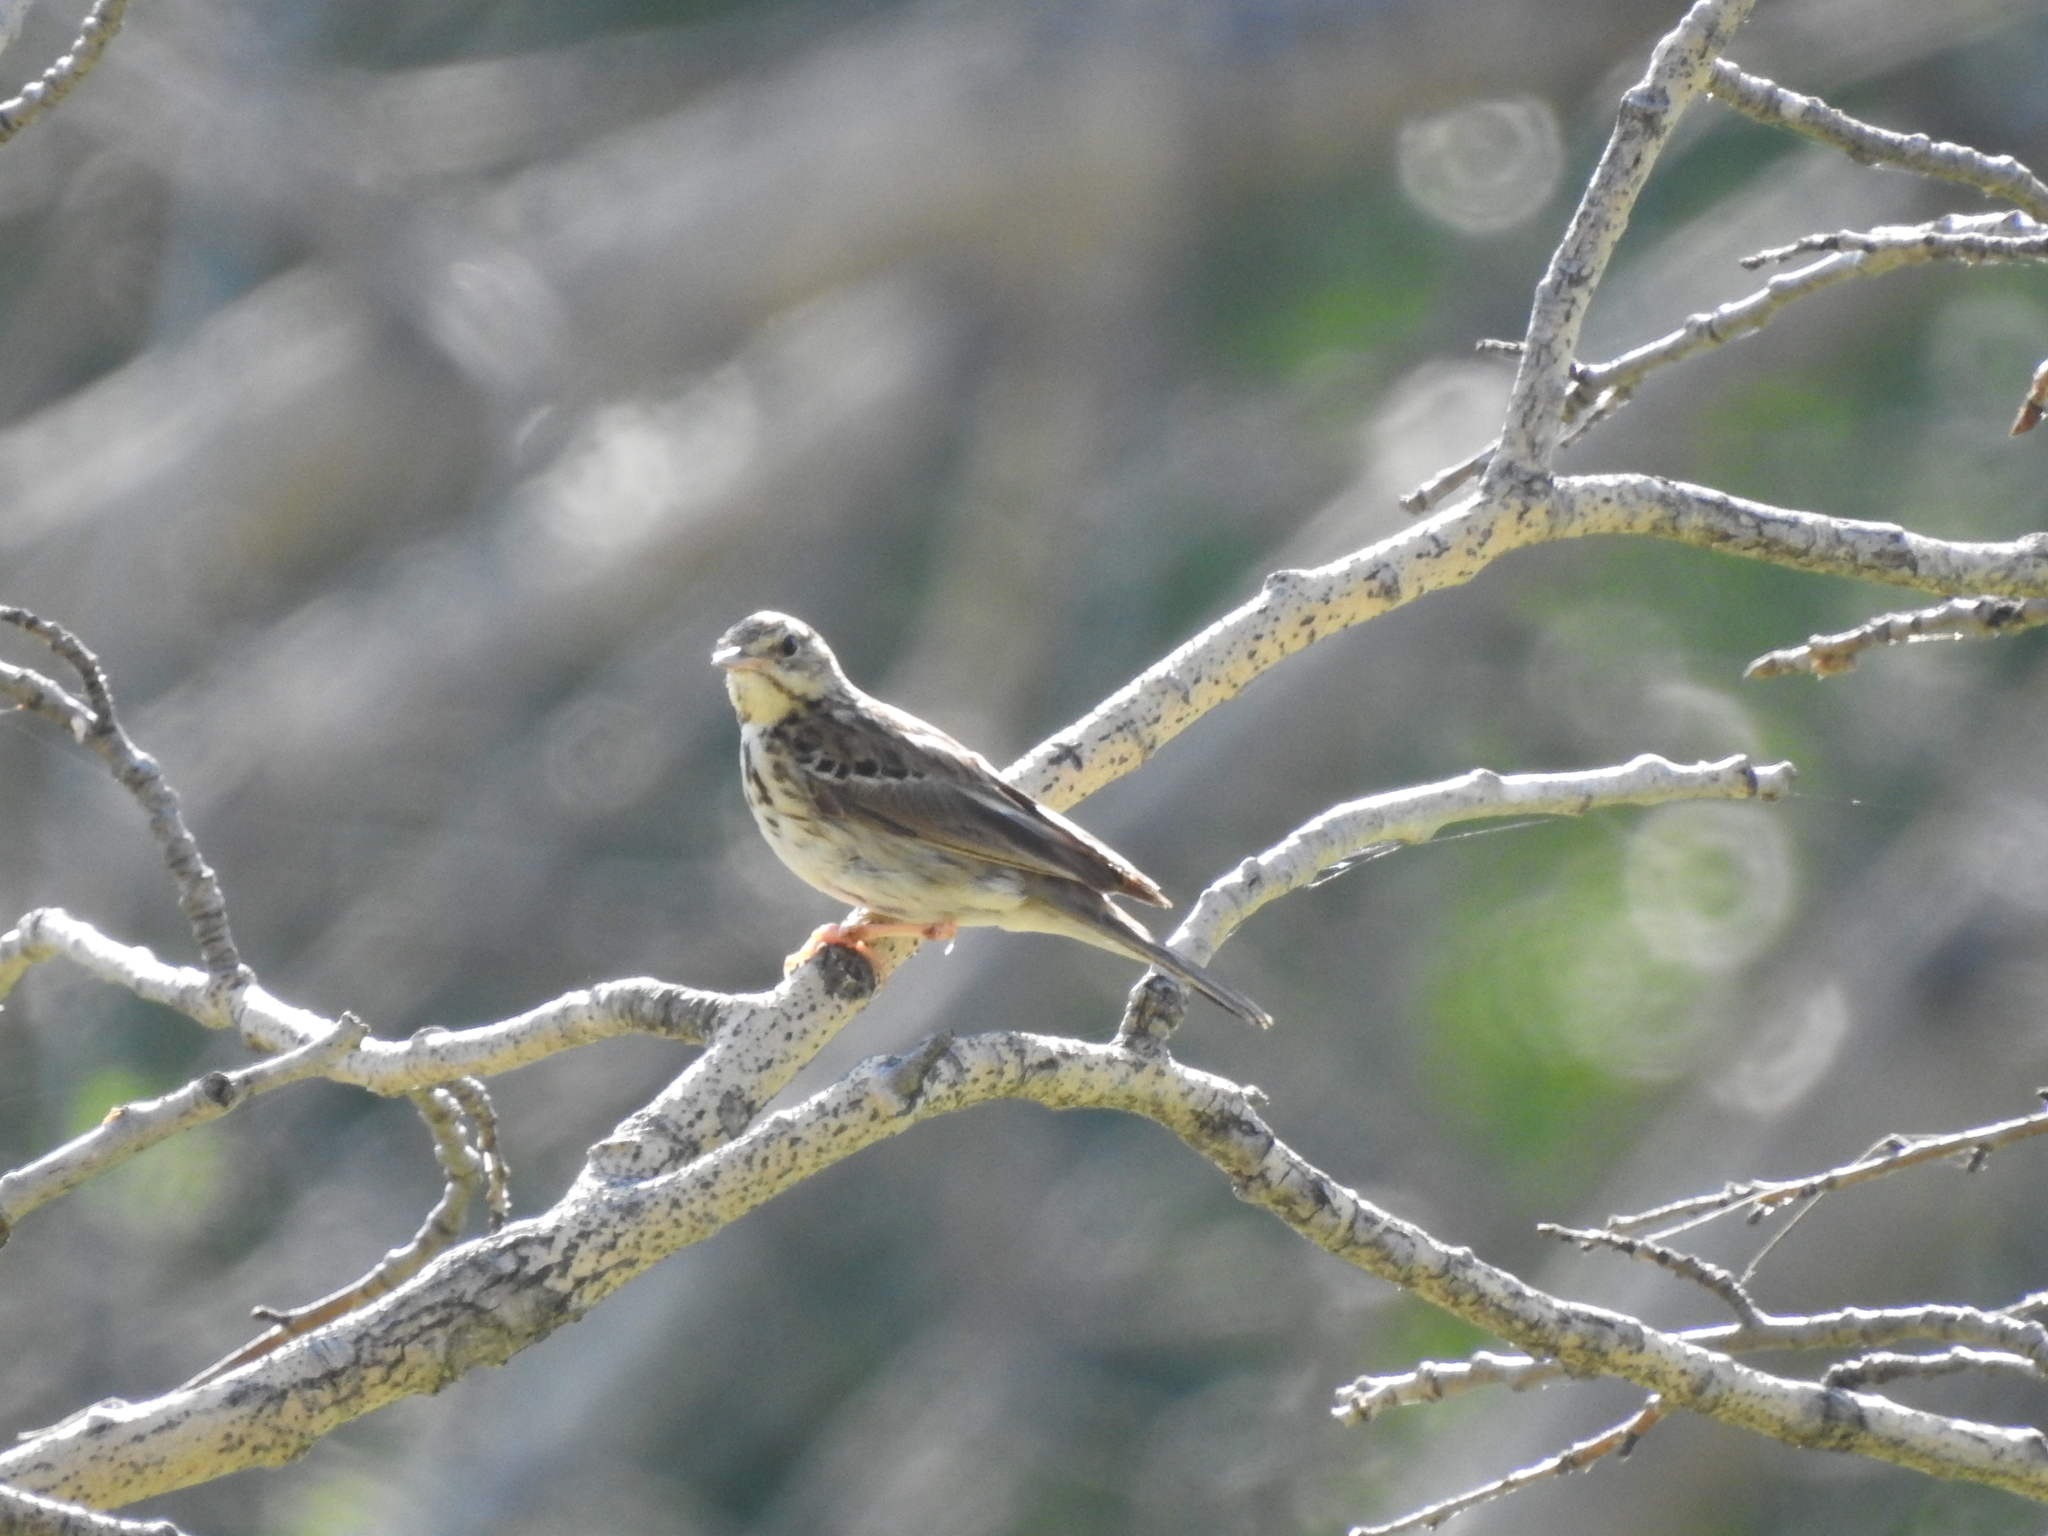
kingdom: Animalia
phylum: Chordata
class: Aves
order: Passeriformes
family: Motacillidae
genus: Anthus
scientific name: Anthus trivialis
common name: Tree pipit
